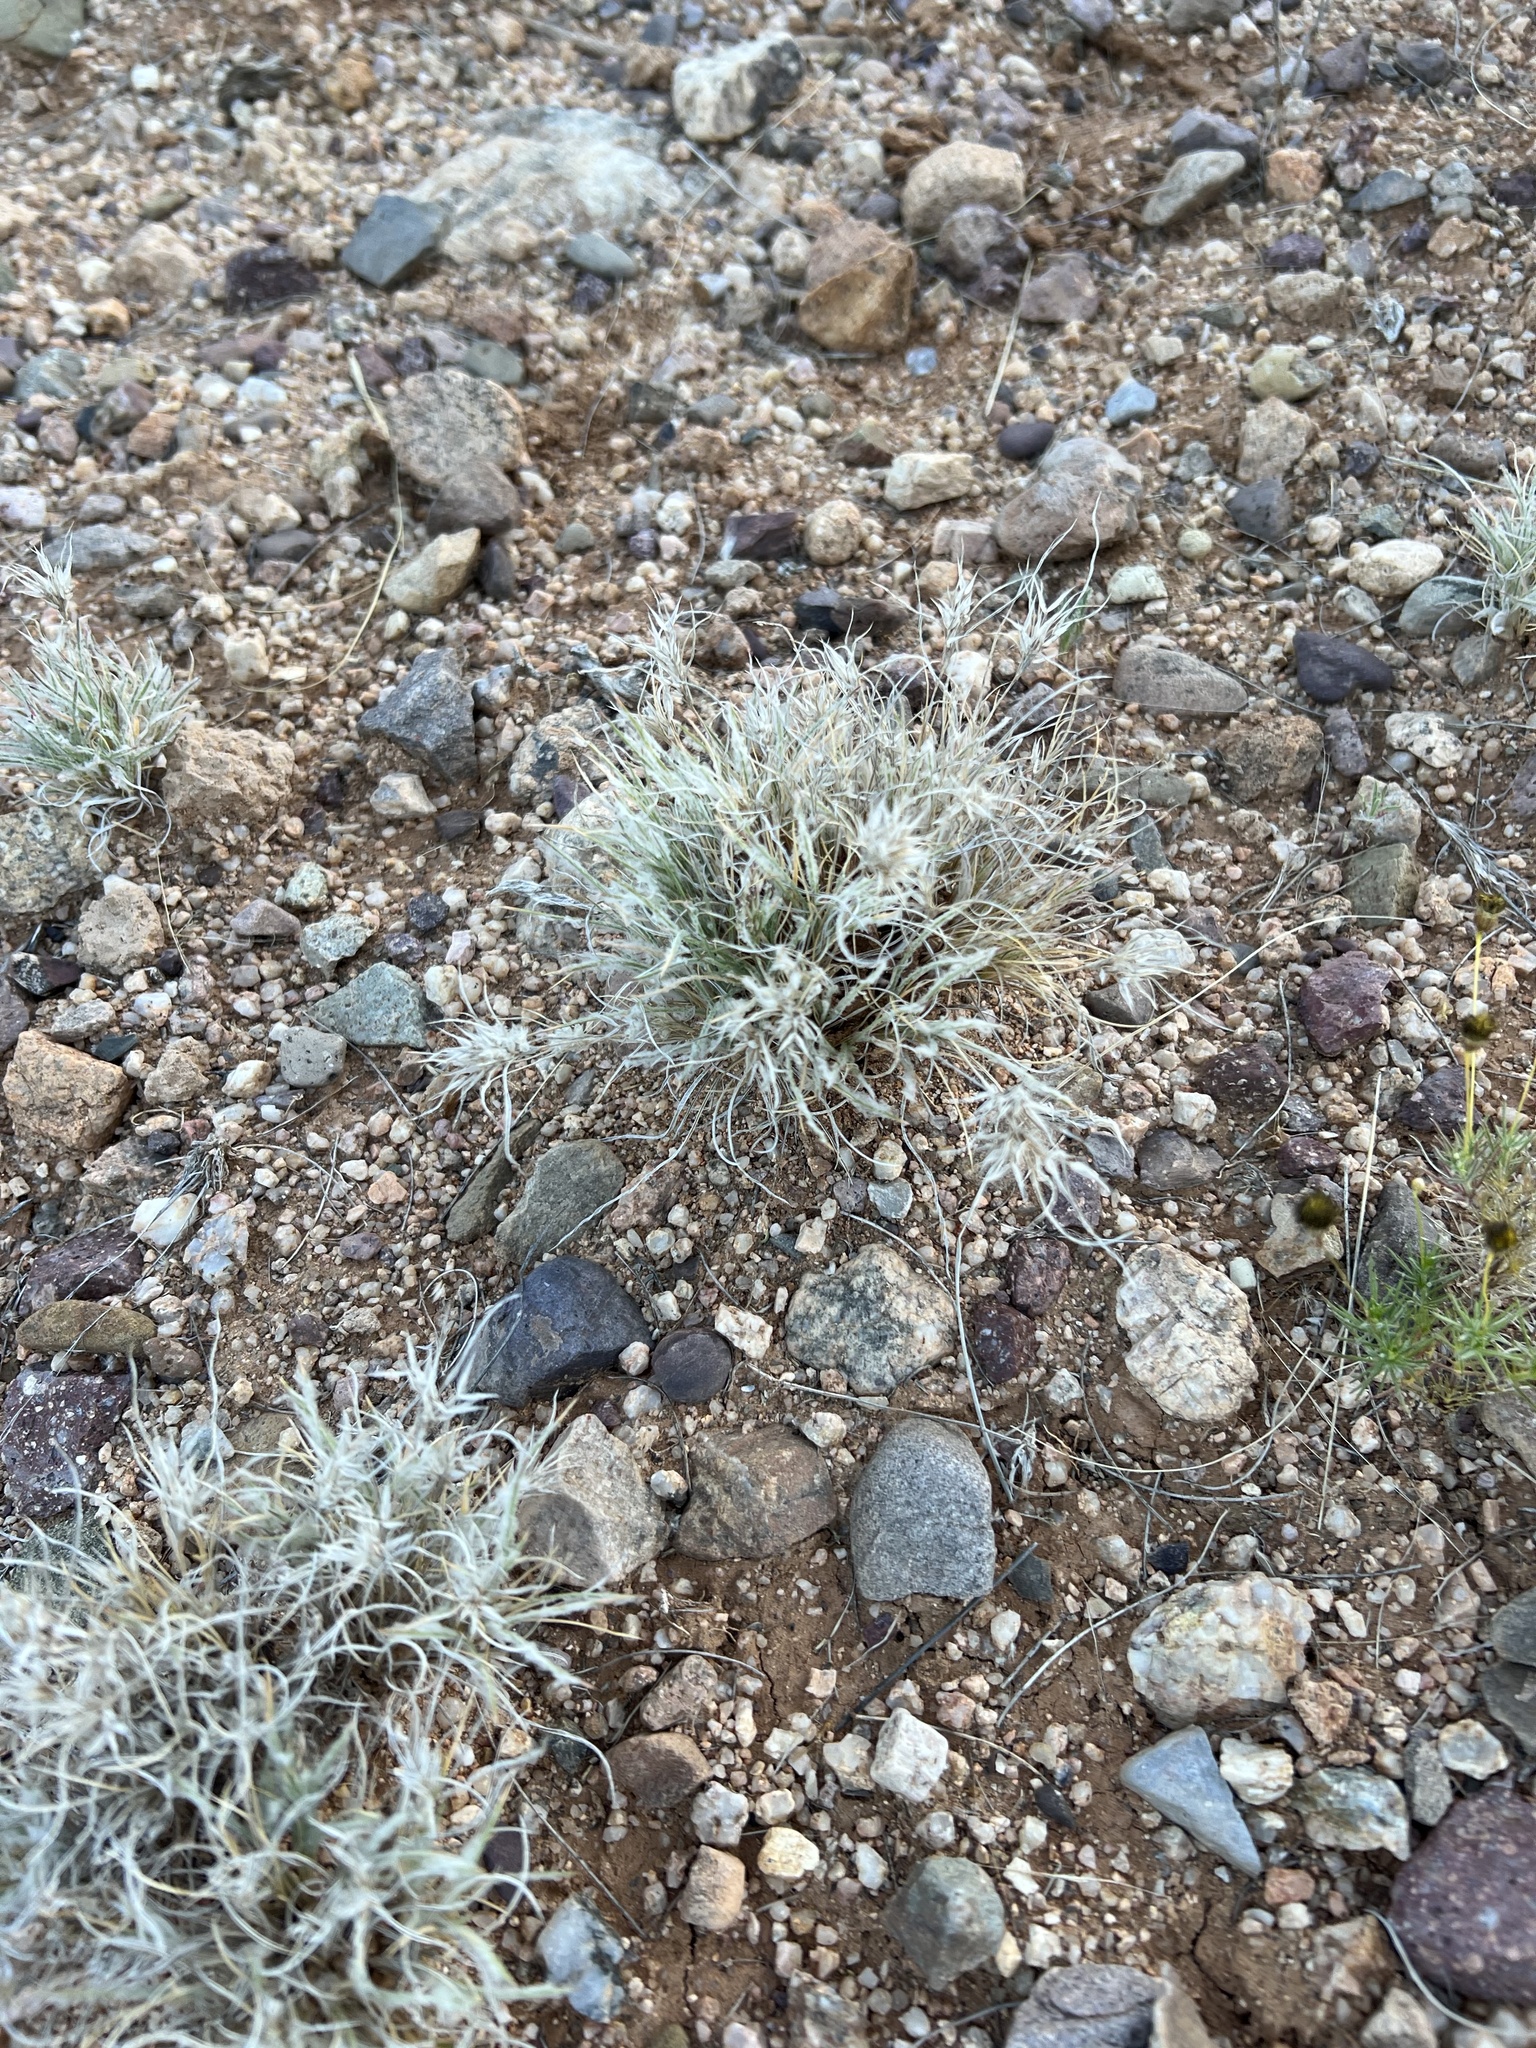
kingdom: Plantae
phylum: Tracheophyta
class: Liliopsida
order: Poales
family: Poaceae
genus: Dasyochloa
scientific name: Dasyochloa pulchella
